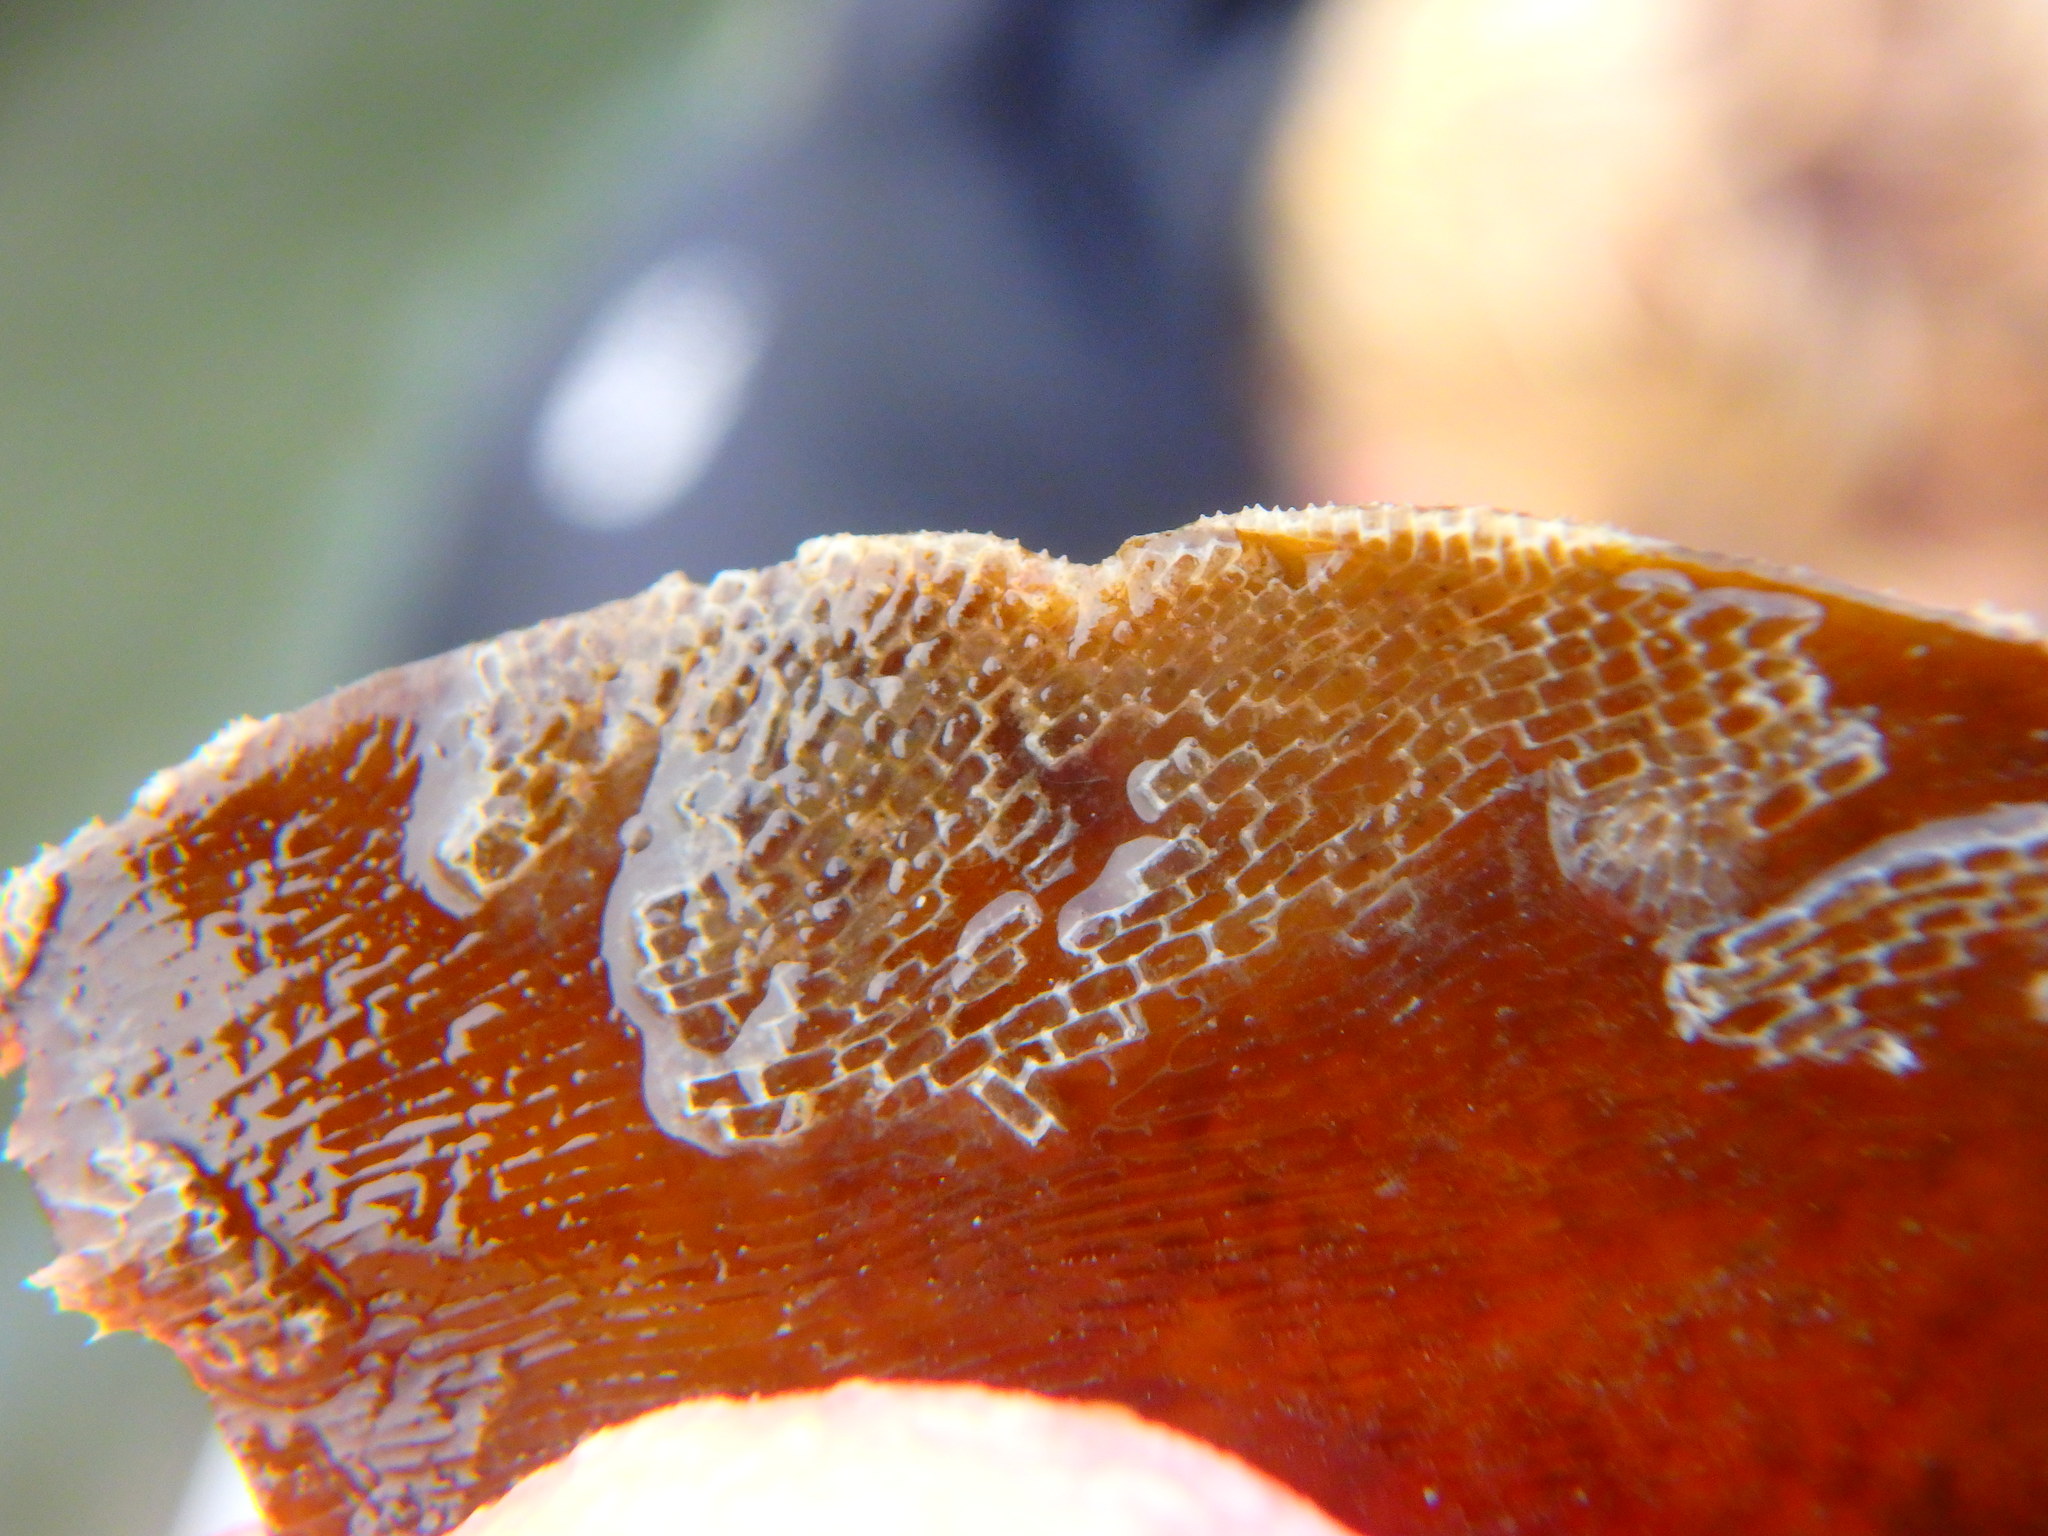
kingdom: Animalia
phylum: Bryozoa
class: Gymnolaemata
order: Cheilostomatida
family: Membraniporidae
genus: Membranipora
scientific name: Membranipora membranacea
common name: Sea mat
